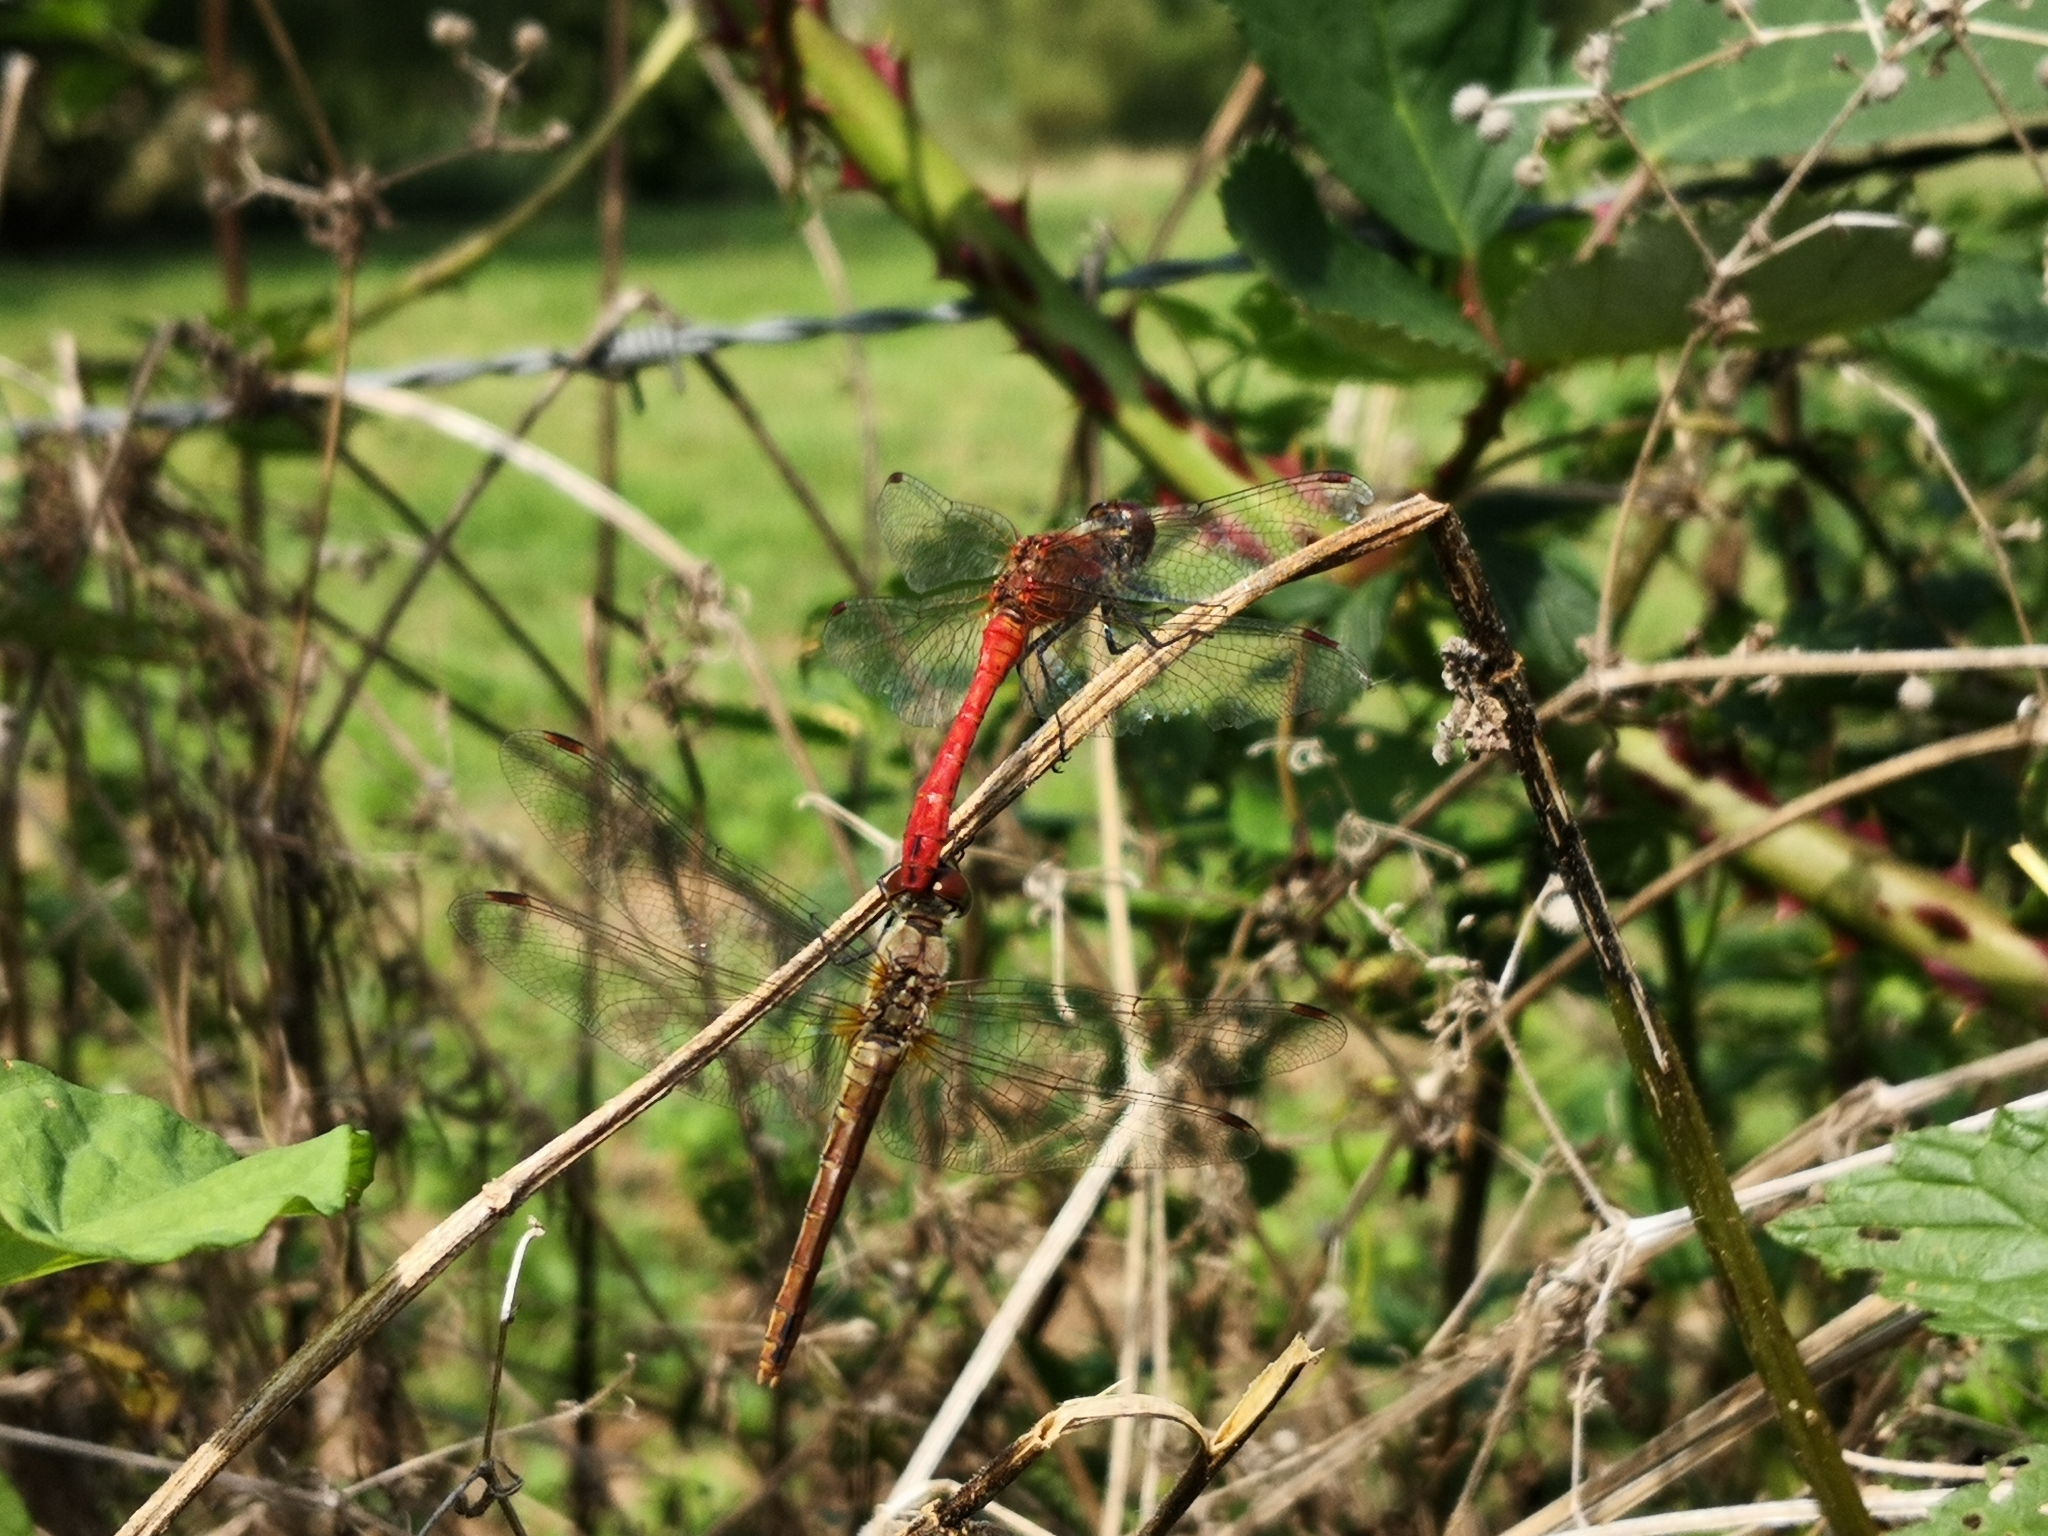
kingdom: Animalia
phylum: Arthropoda
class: Insecta
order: Odonata
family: Libellulidae
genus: Sympetrum
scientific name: Sympetrum sanguineum
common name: Ruddy darter
